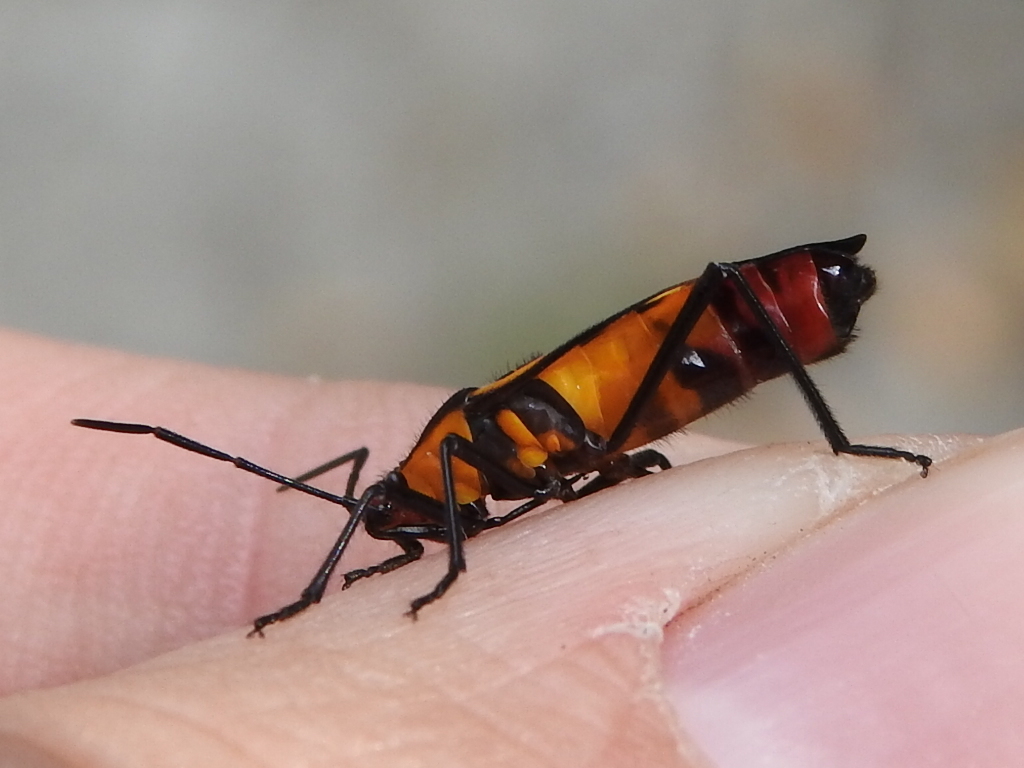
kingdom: Animalia
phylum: Arthropoda
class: Insecta
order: Hemiptera
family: Lygaeidae
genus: Oncopeltus
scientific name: Oncopeltus sexmaculatus
